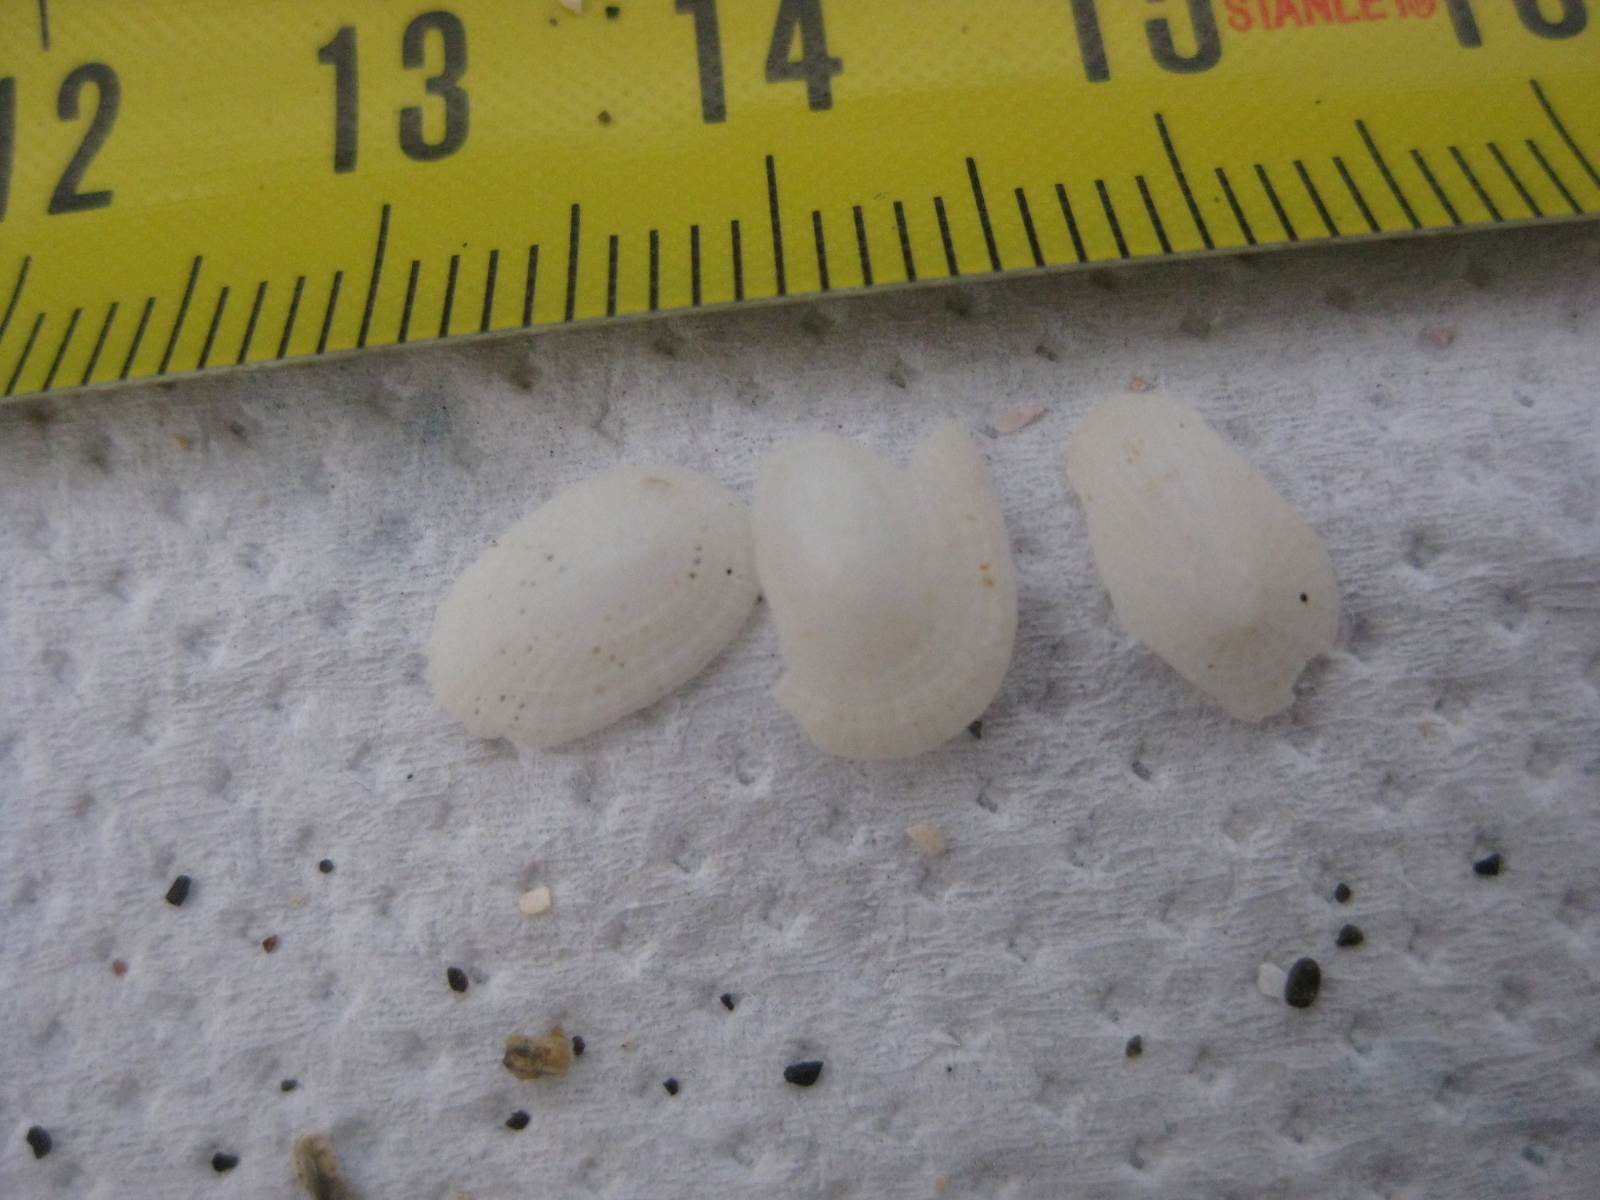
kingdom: Animalia
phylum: Mollusca
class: Gastropoda
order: Lepetellida
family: Fissurellidae
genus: Tugali
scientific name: Tugali suteri
